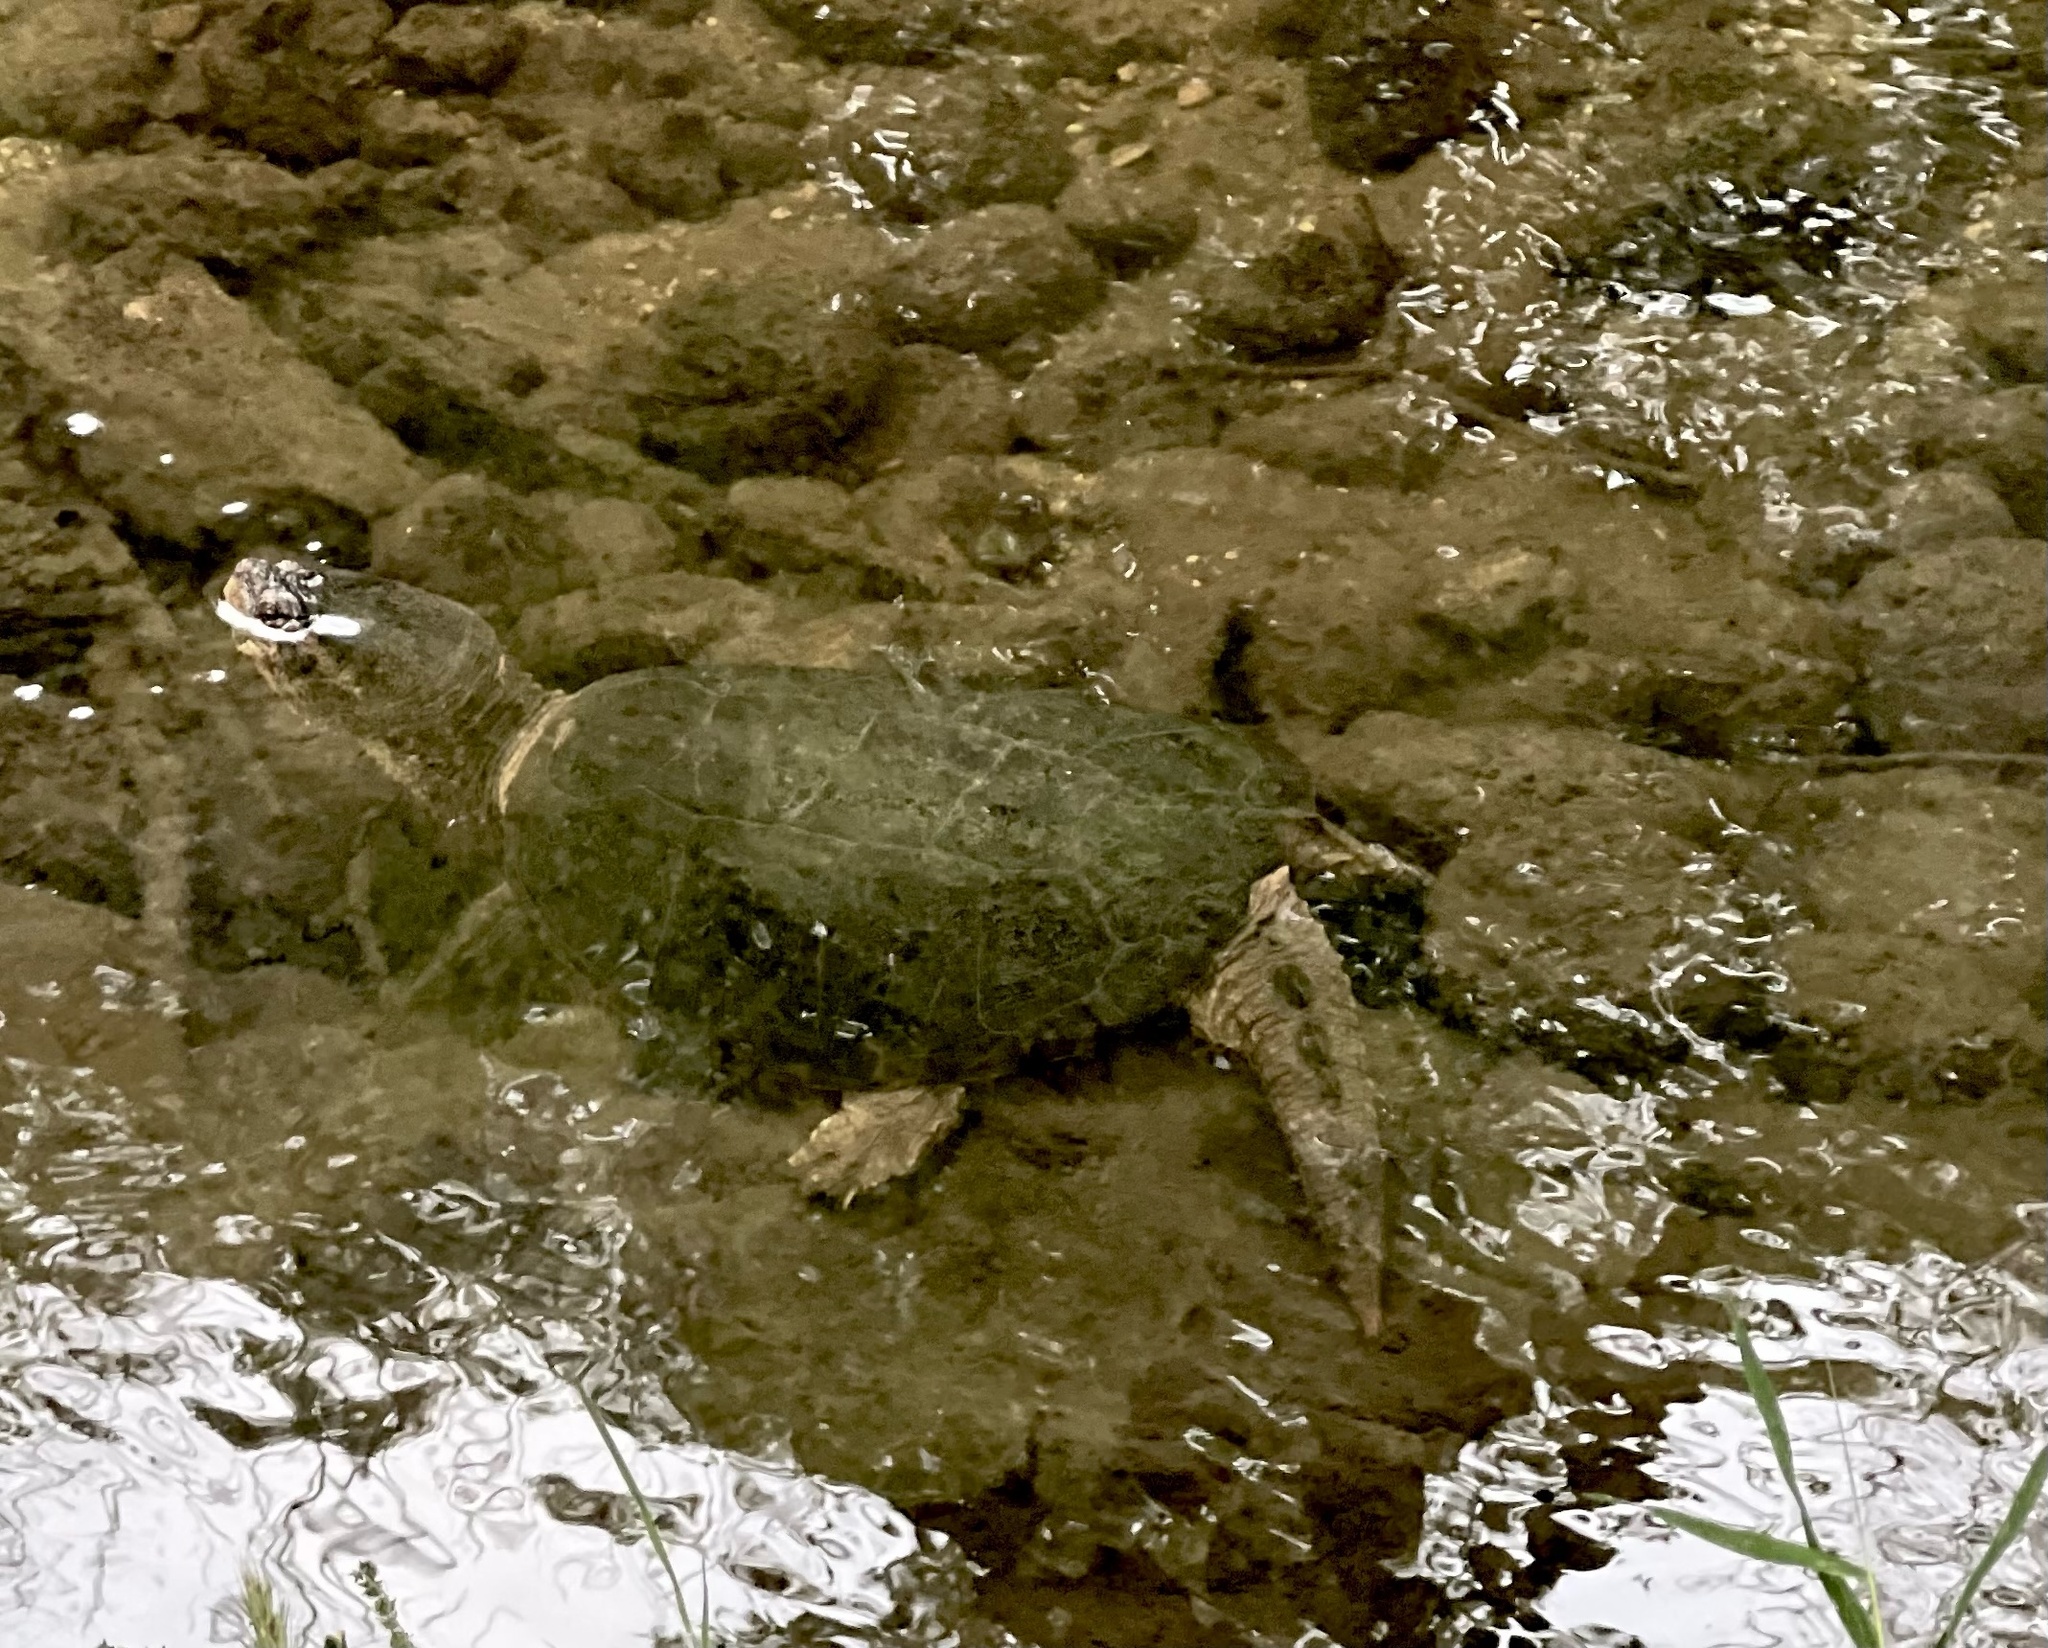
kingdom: Animalia
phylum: Chordata
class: Testudines
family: Chelydridae
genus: Chelydra
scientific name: Chelydra serpentina
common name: Common snapping turtle
